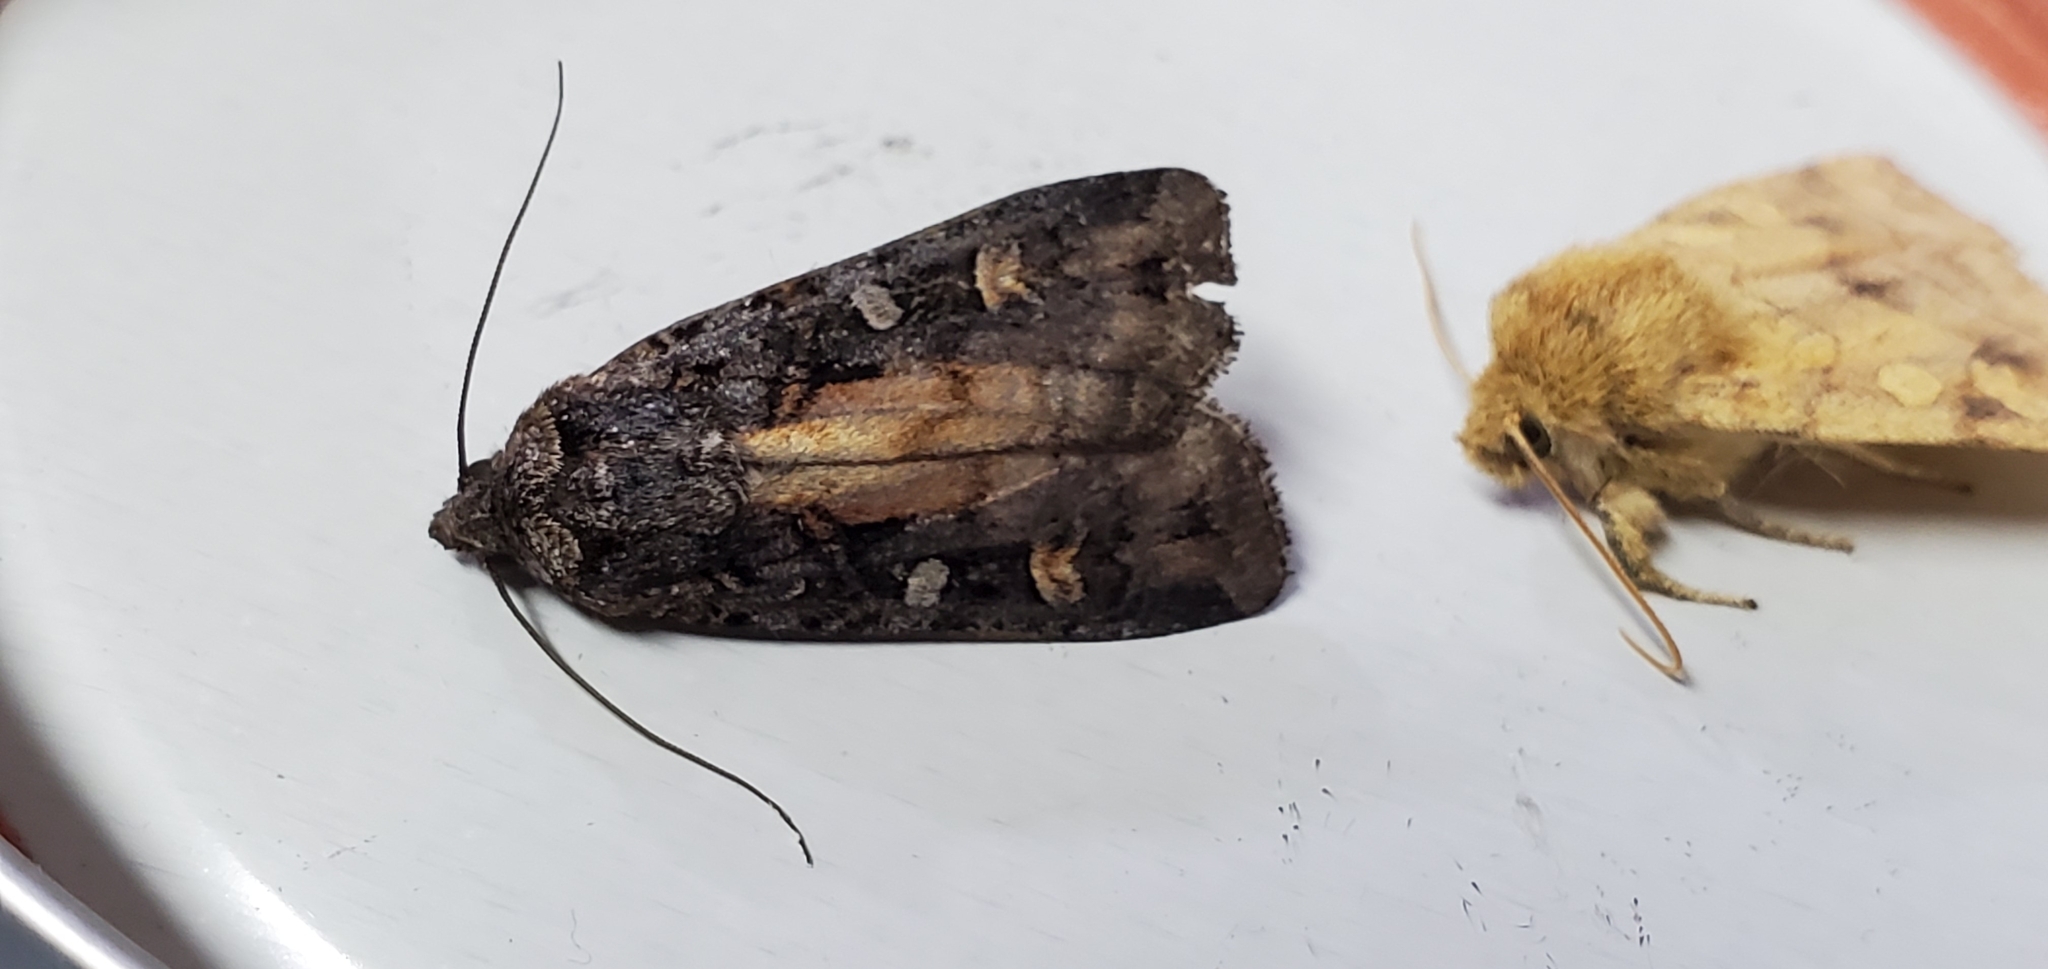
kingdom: Animalia
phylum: Arthropoda
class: Insecta
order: Lepidoptera
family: Noctuidae
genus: Actebia
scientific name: Actebia fennica
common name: Eversmann's rustic
